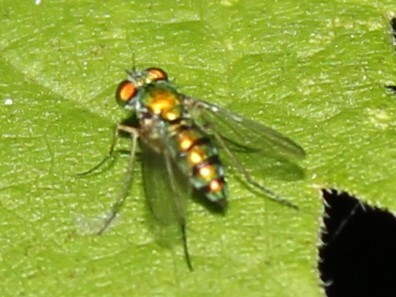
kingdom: Animalia
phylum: Arthropoda
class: Insecta
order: Diptera
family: Dolichopodidae
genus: Condylostylus
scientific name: Condylostylus
